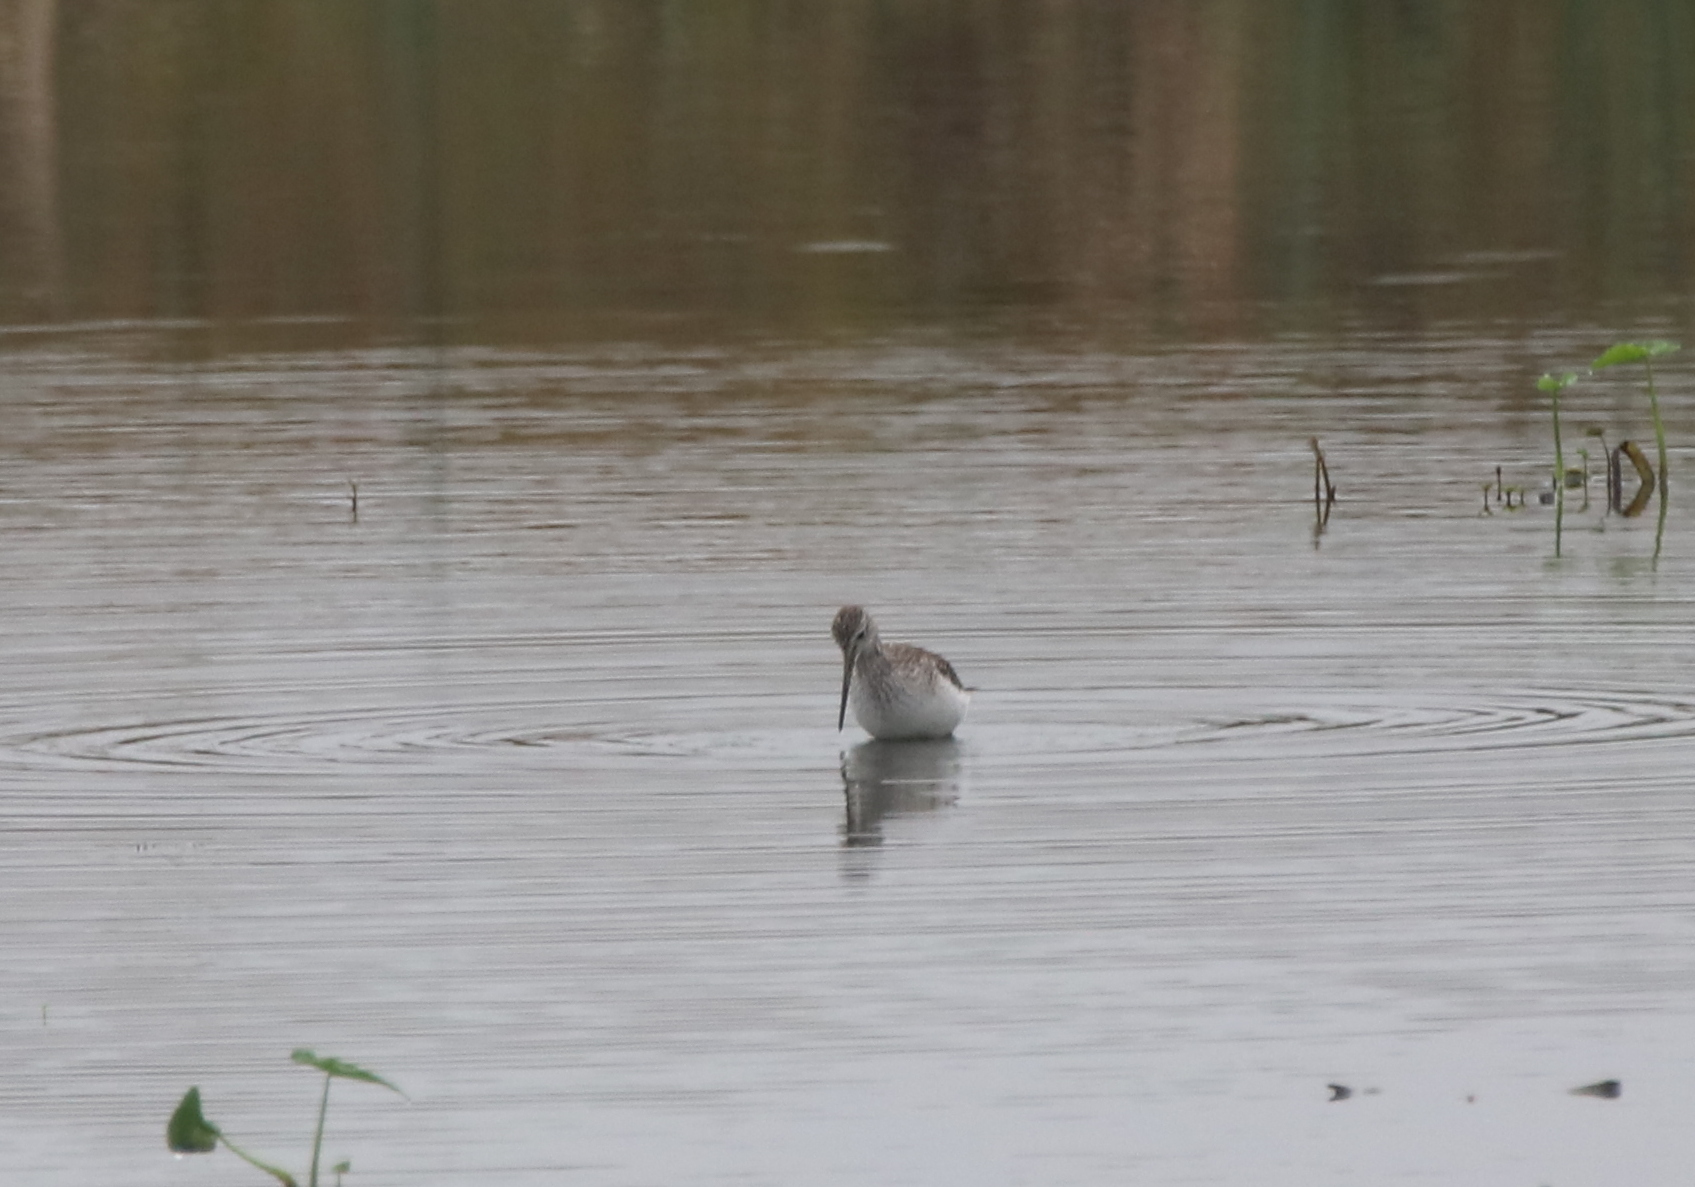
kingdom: Animalia
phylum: Chordata
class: Aves
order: Charadriiformes
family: Scolopacidae
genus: Tringa
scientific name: Tringa melanoleuca
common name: Greater yellowlegs
